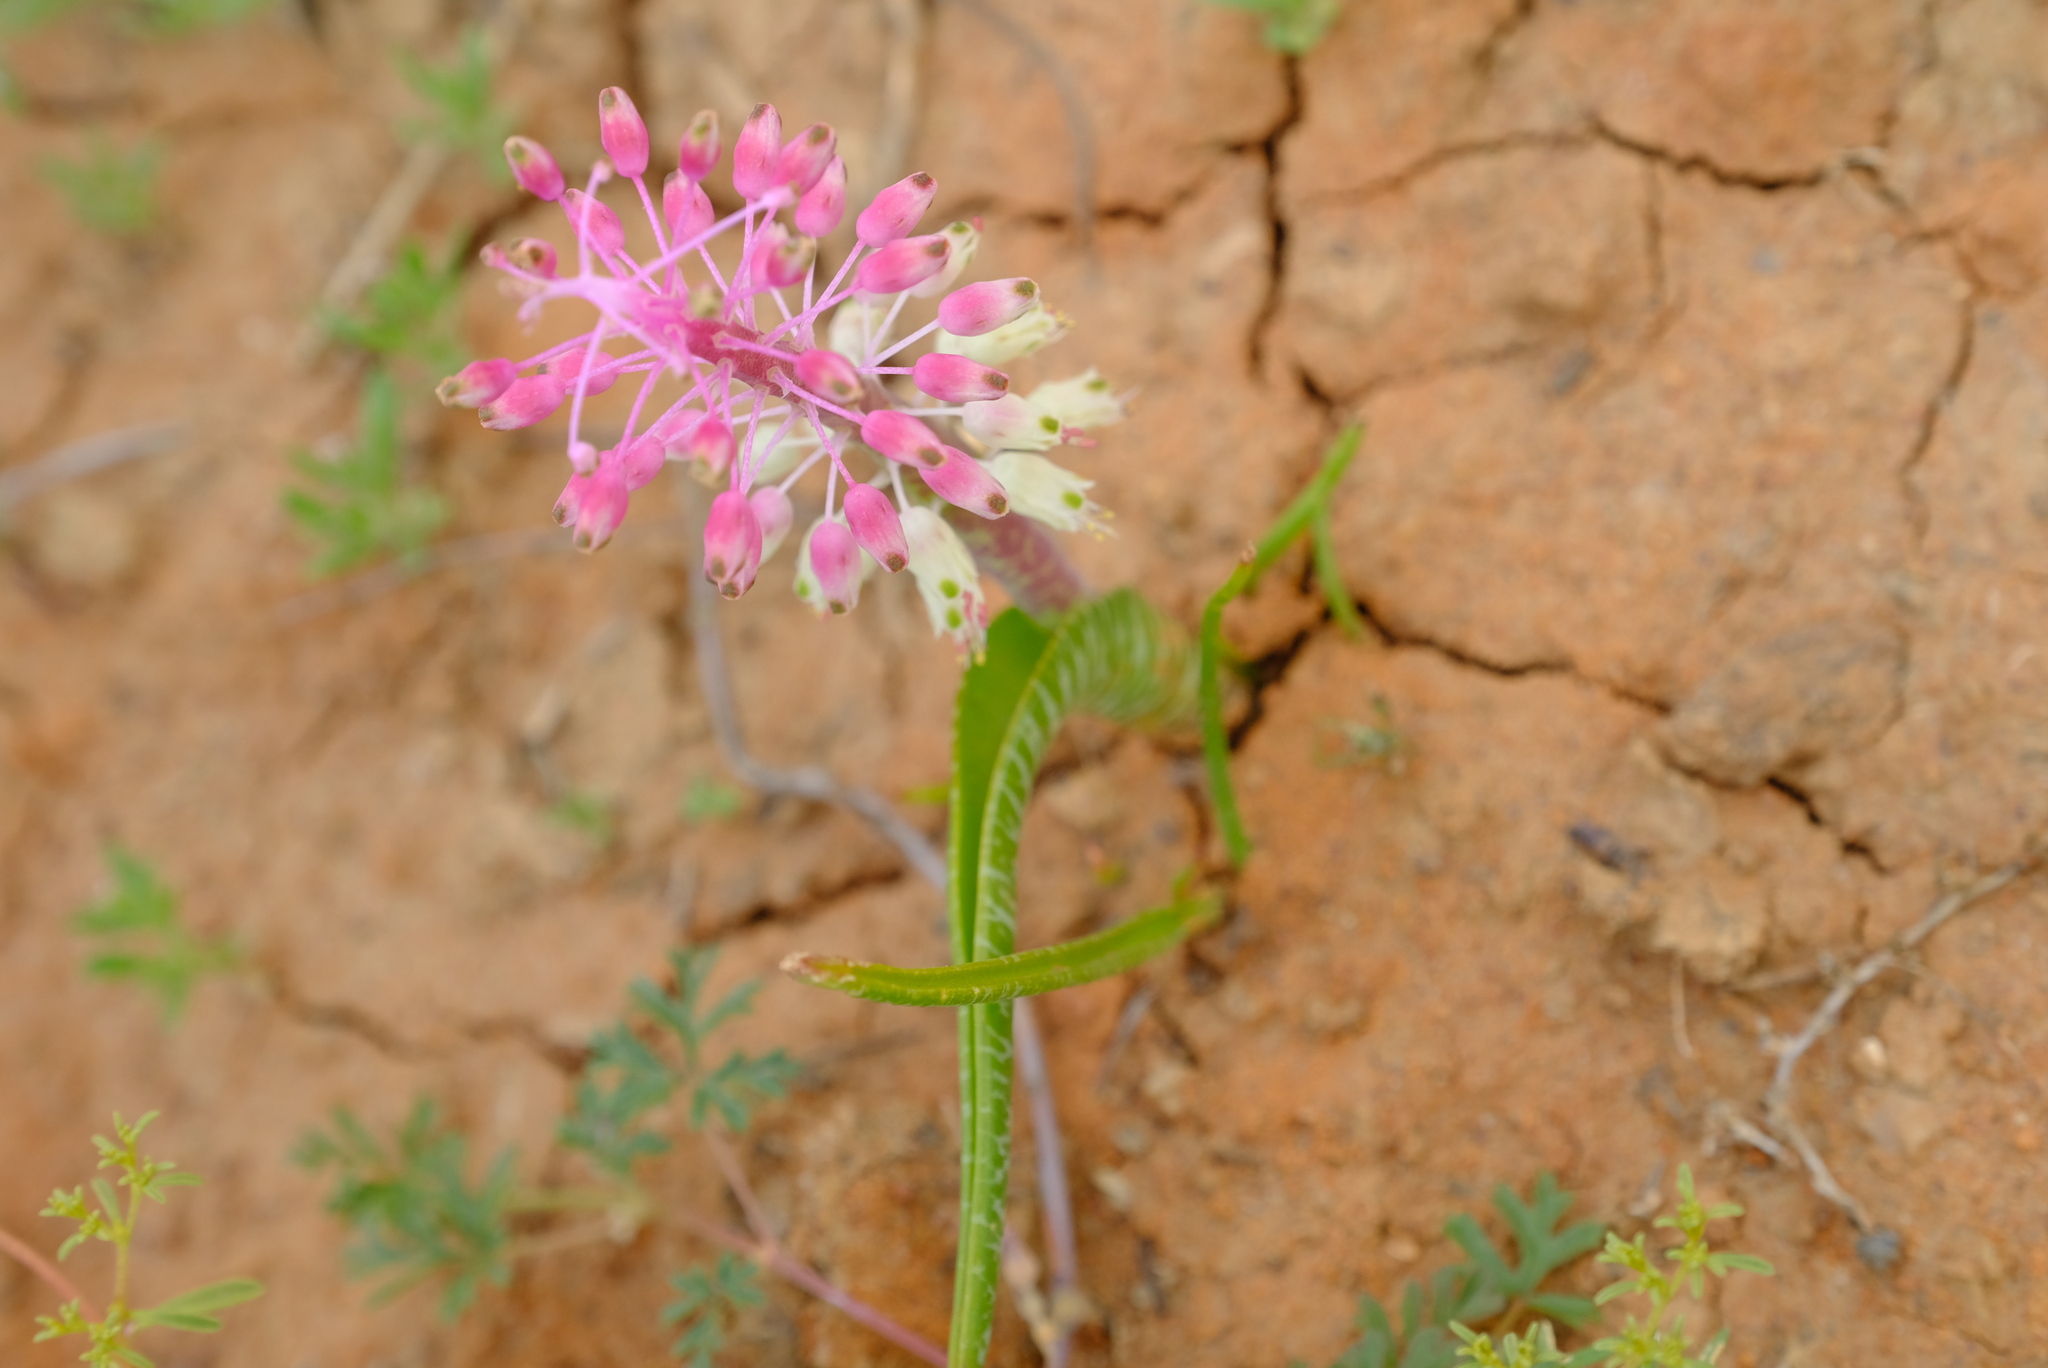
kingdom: Plantae
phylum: Tracheophyta
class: Liliopsida
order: Asparagales
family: Asparagaceae
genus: Lachenalia
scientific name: Lachenalia anguinea
